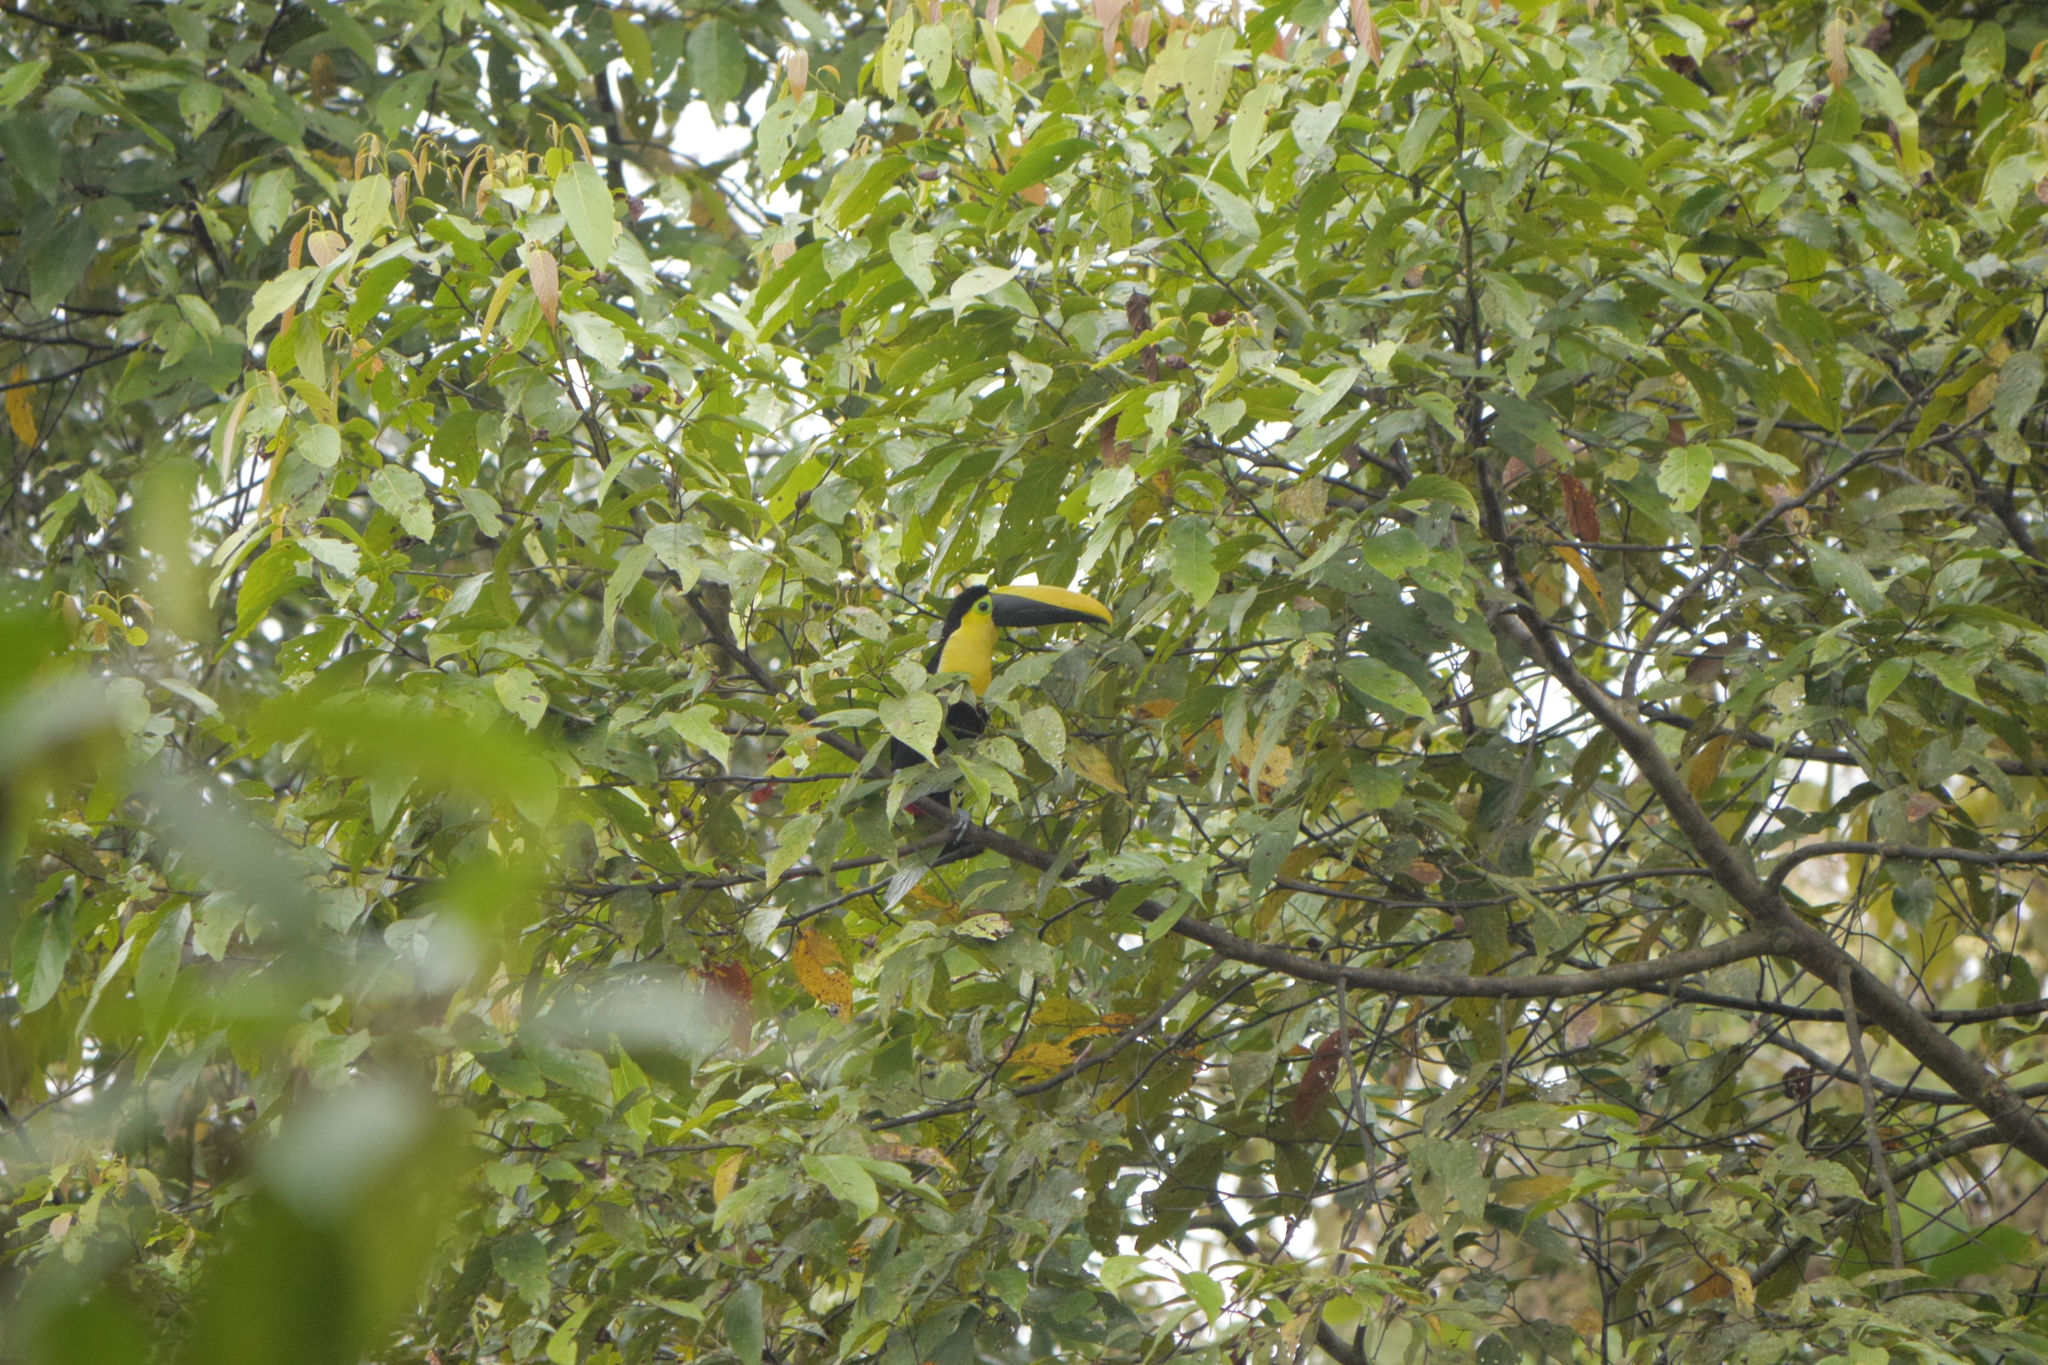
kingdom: Animalia
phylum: Chordata
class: Aves
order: Piciformes
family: Ramphastidae
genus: Ramphastos
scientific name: Ramphastos brevis
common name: Choco toucan
